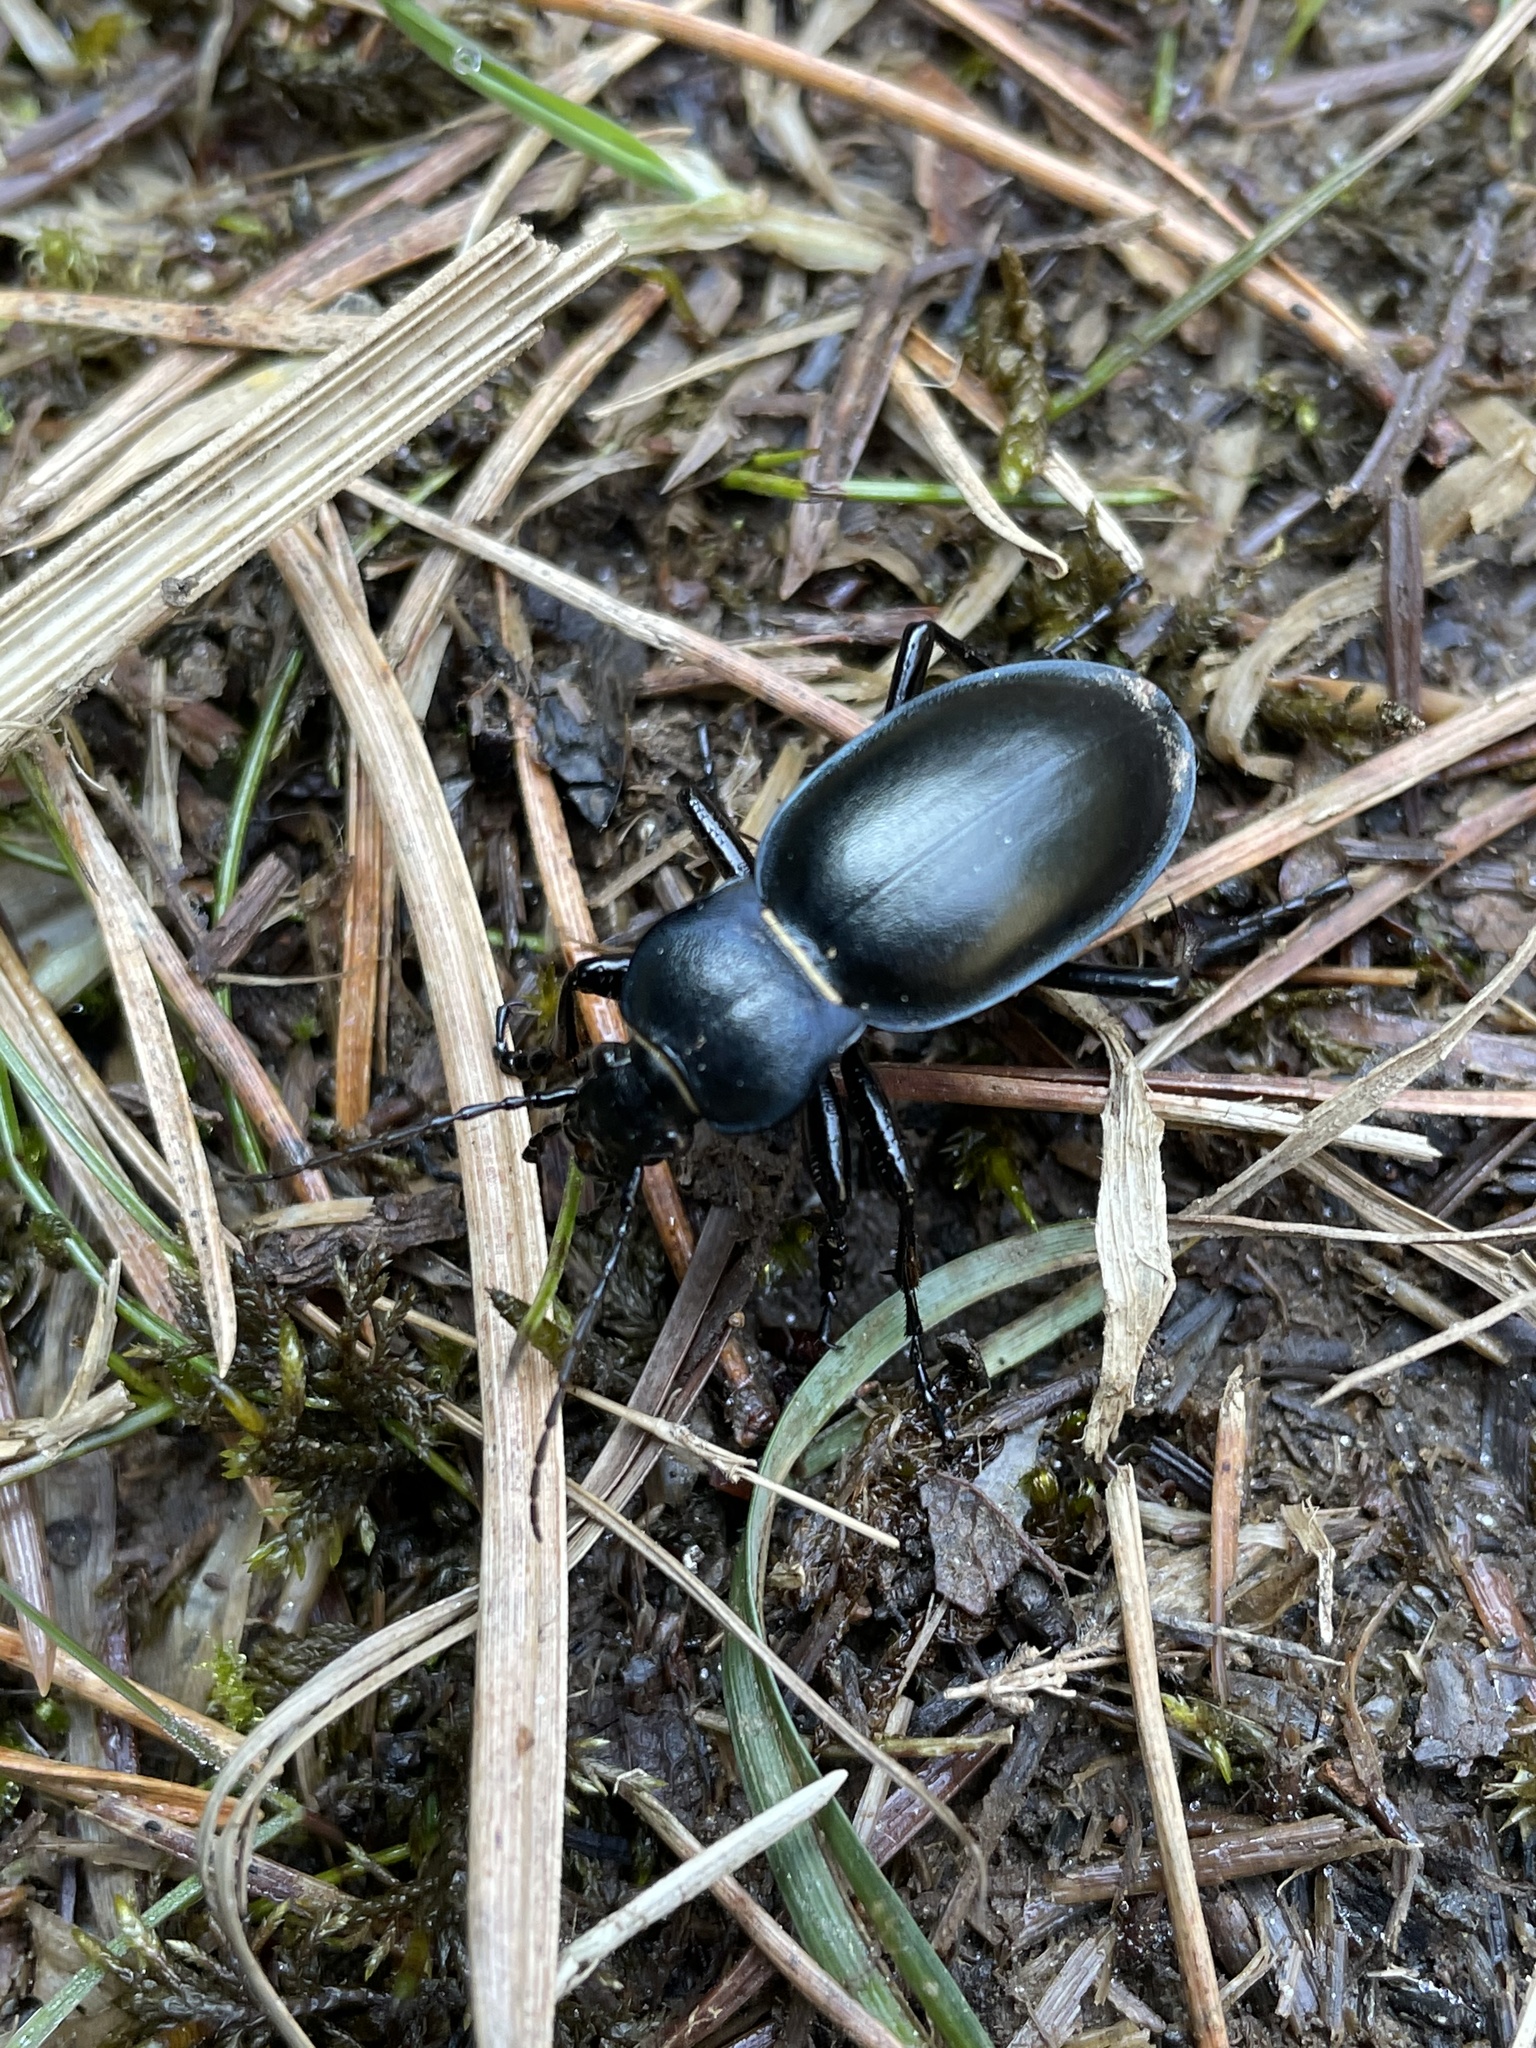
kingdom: Animalia
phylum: Arthropoda
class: Insecta
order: Coleoptera
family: Carabidae
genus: Carabus
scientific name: Carabus glabratus
